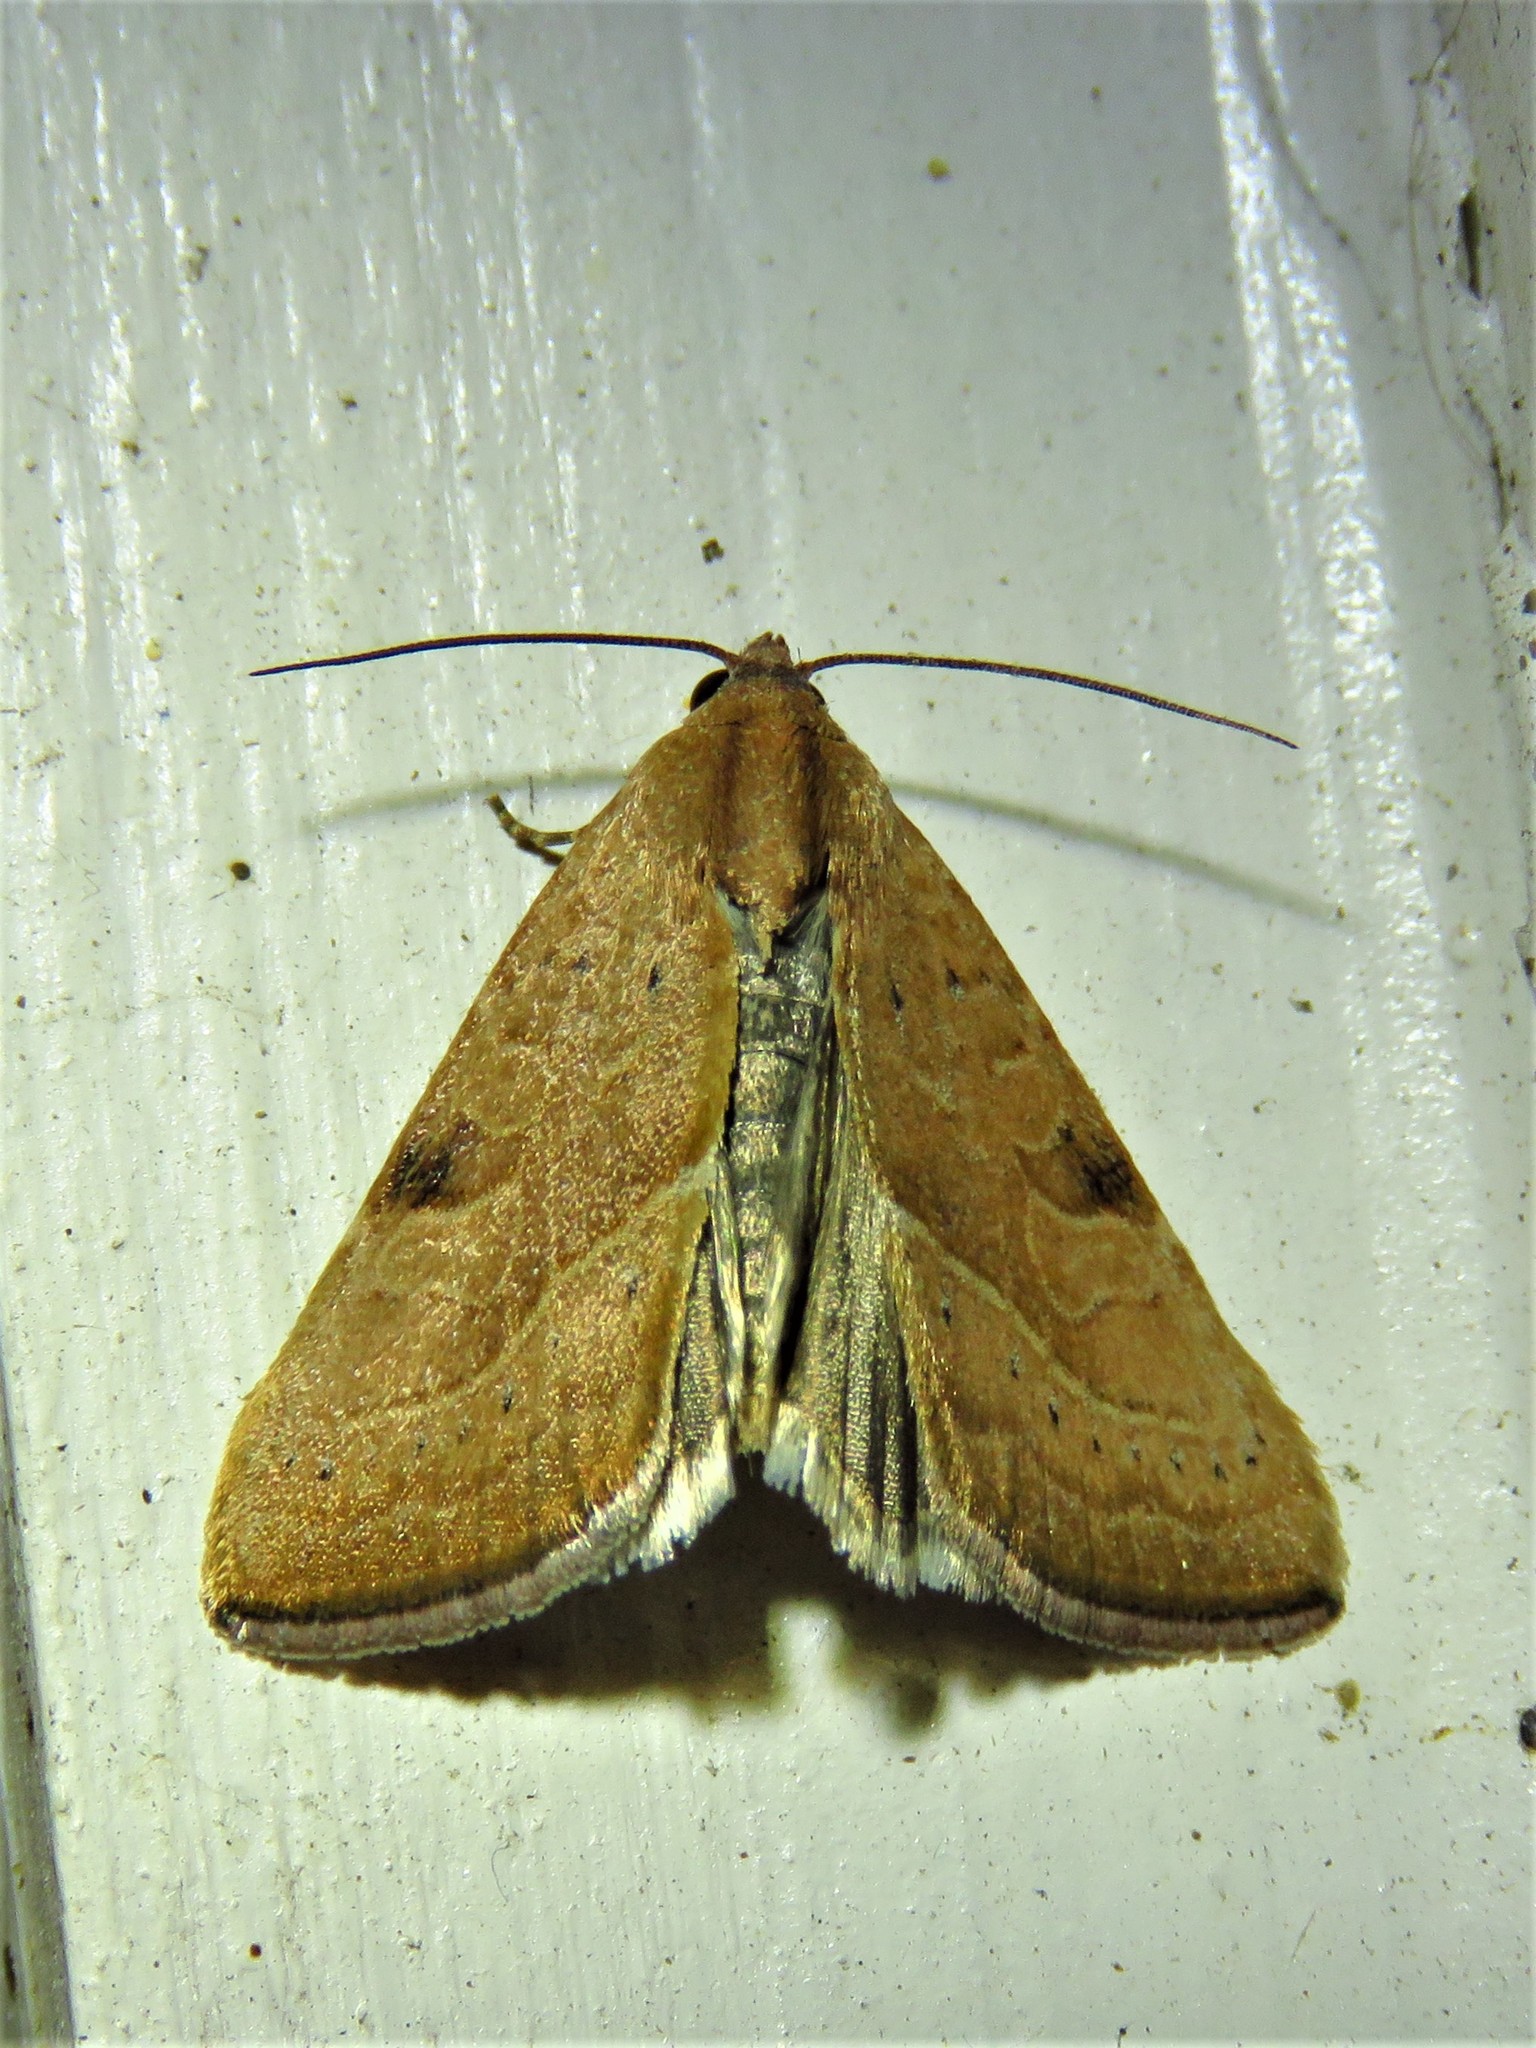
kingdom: Animalia
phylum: Arthropoda
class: Insecta
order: Lepidoptera
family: Noctuidae
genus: Galgula
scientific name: Galgula partita
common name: Wedgeling
